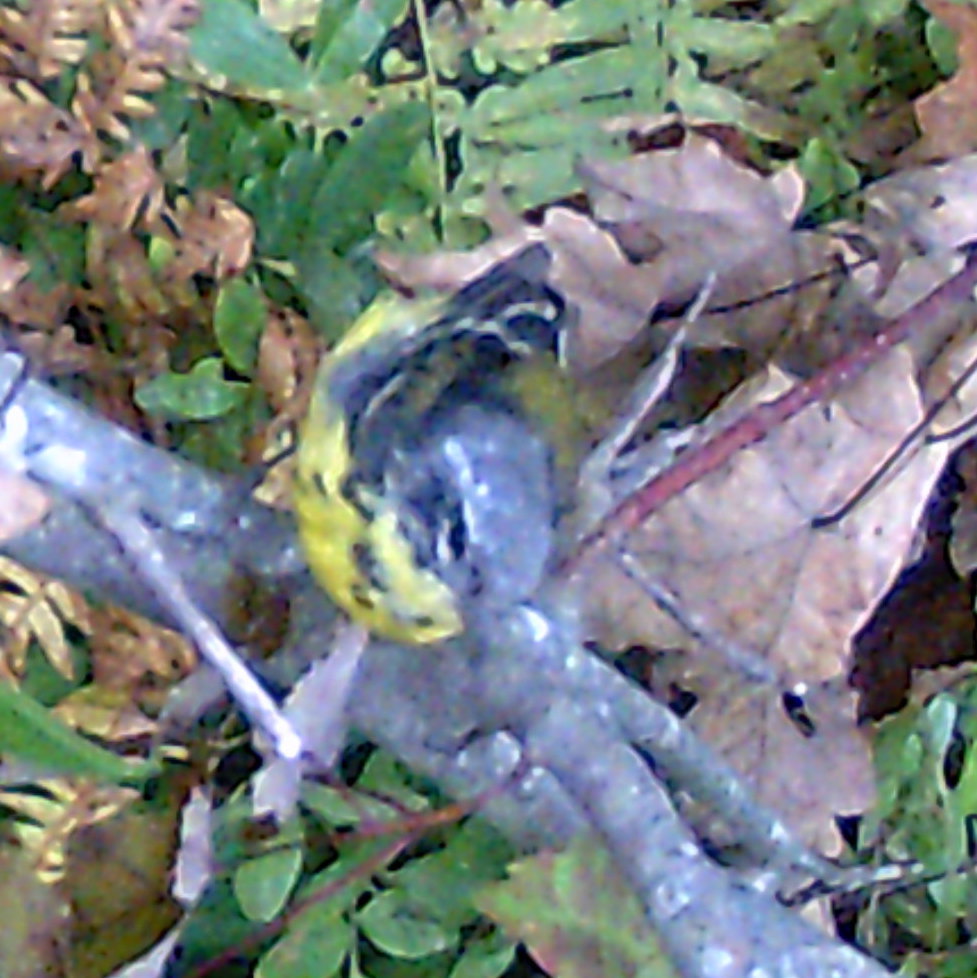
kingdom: Animalia
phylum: Chordata
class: Aves
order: Passeriformes
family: Parulidae
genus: Setophaga
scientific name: Setophaga magnolia
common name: Magnolia warbler
